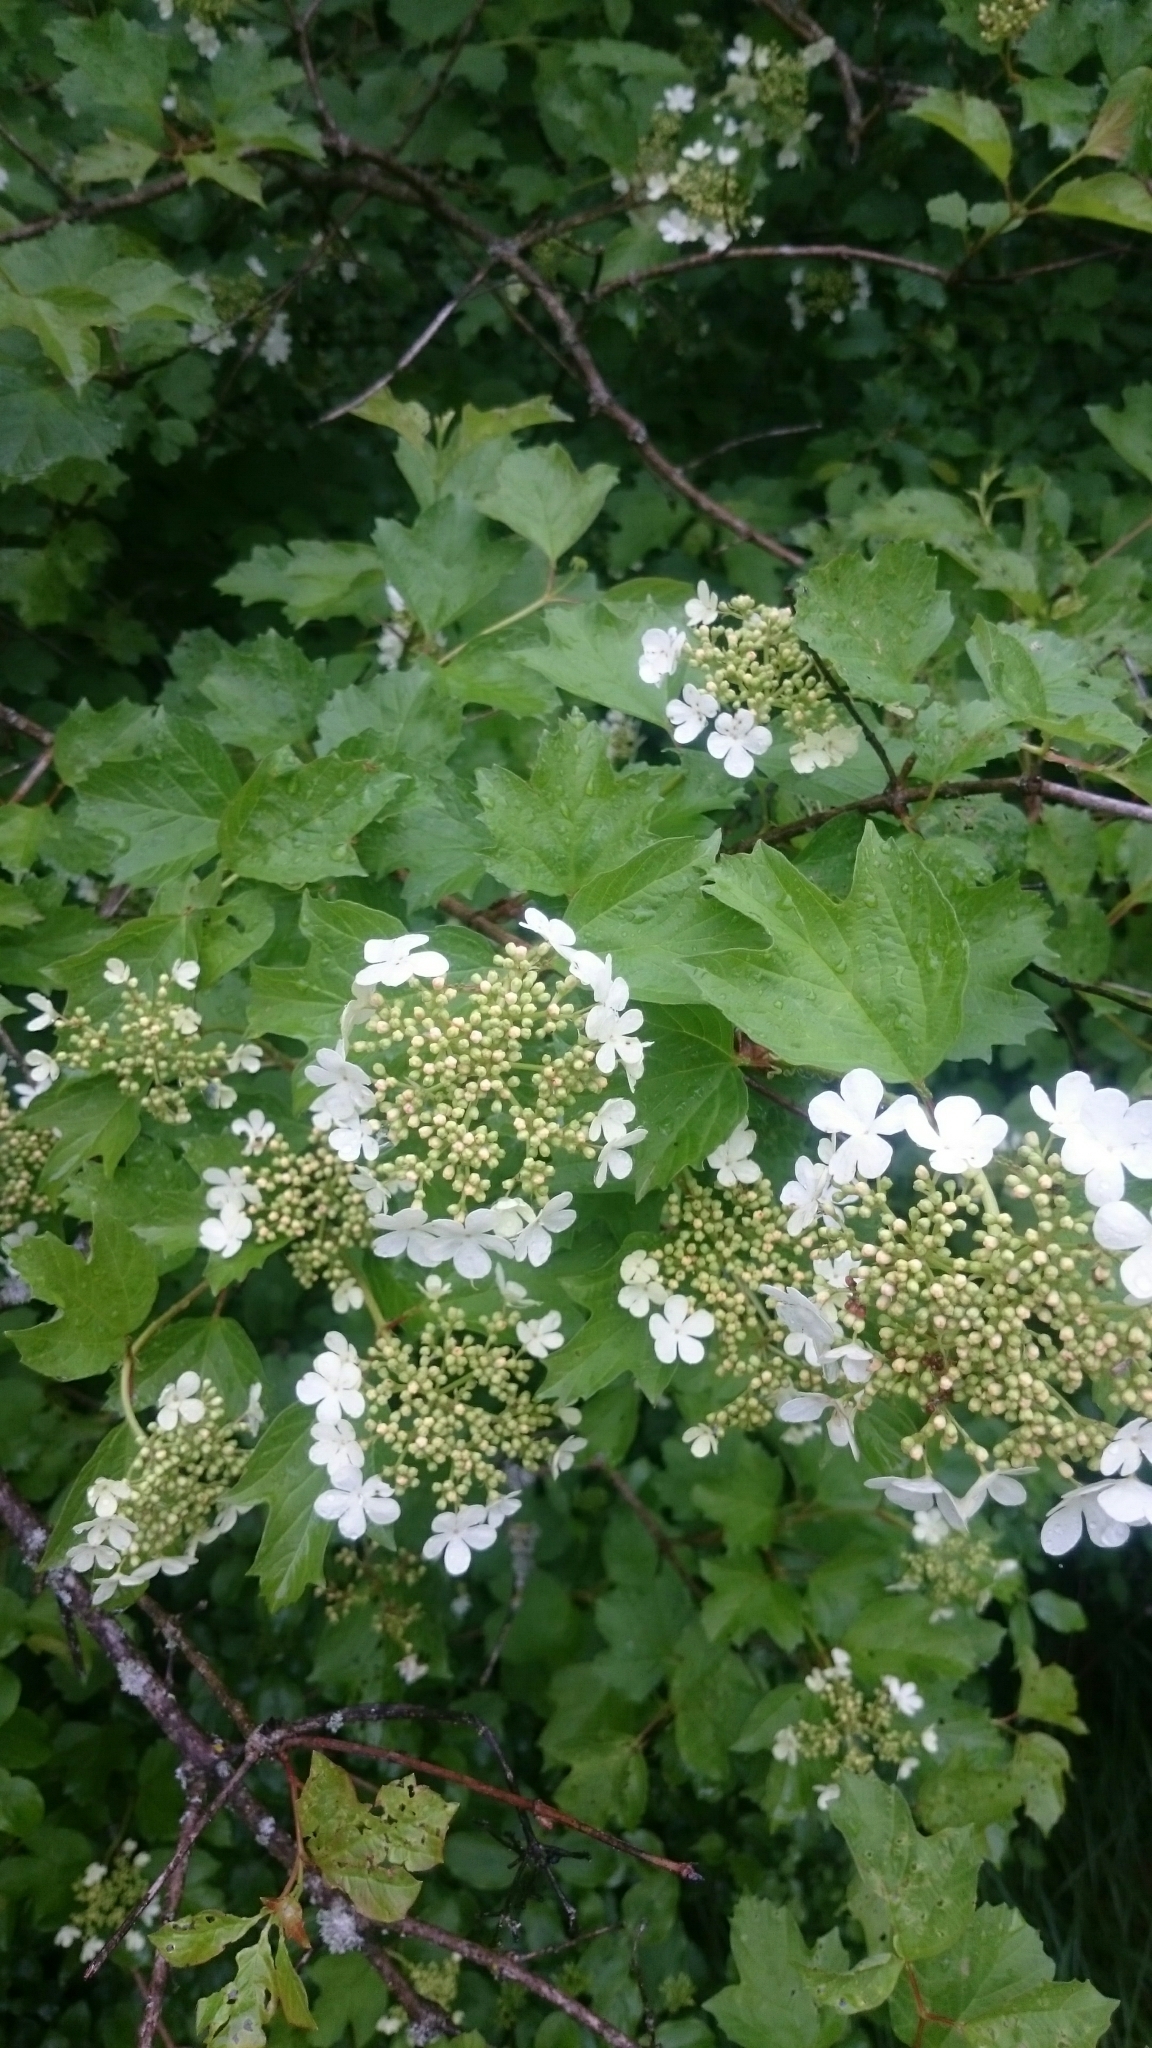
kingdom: Plantae
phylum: Tracheophyta
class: Magnoliopsida
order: Dipsacales
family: Viburnaceae
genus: Viburnum
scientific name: Viburnum opulus
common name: Guelder-rose
